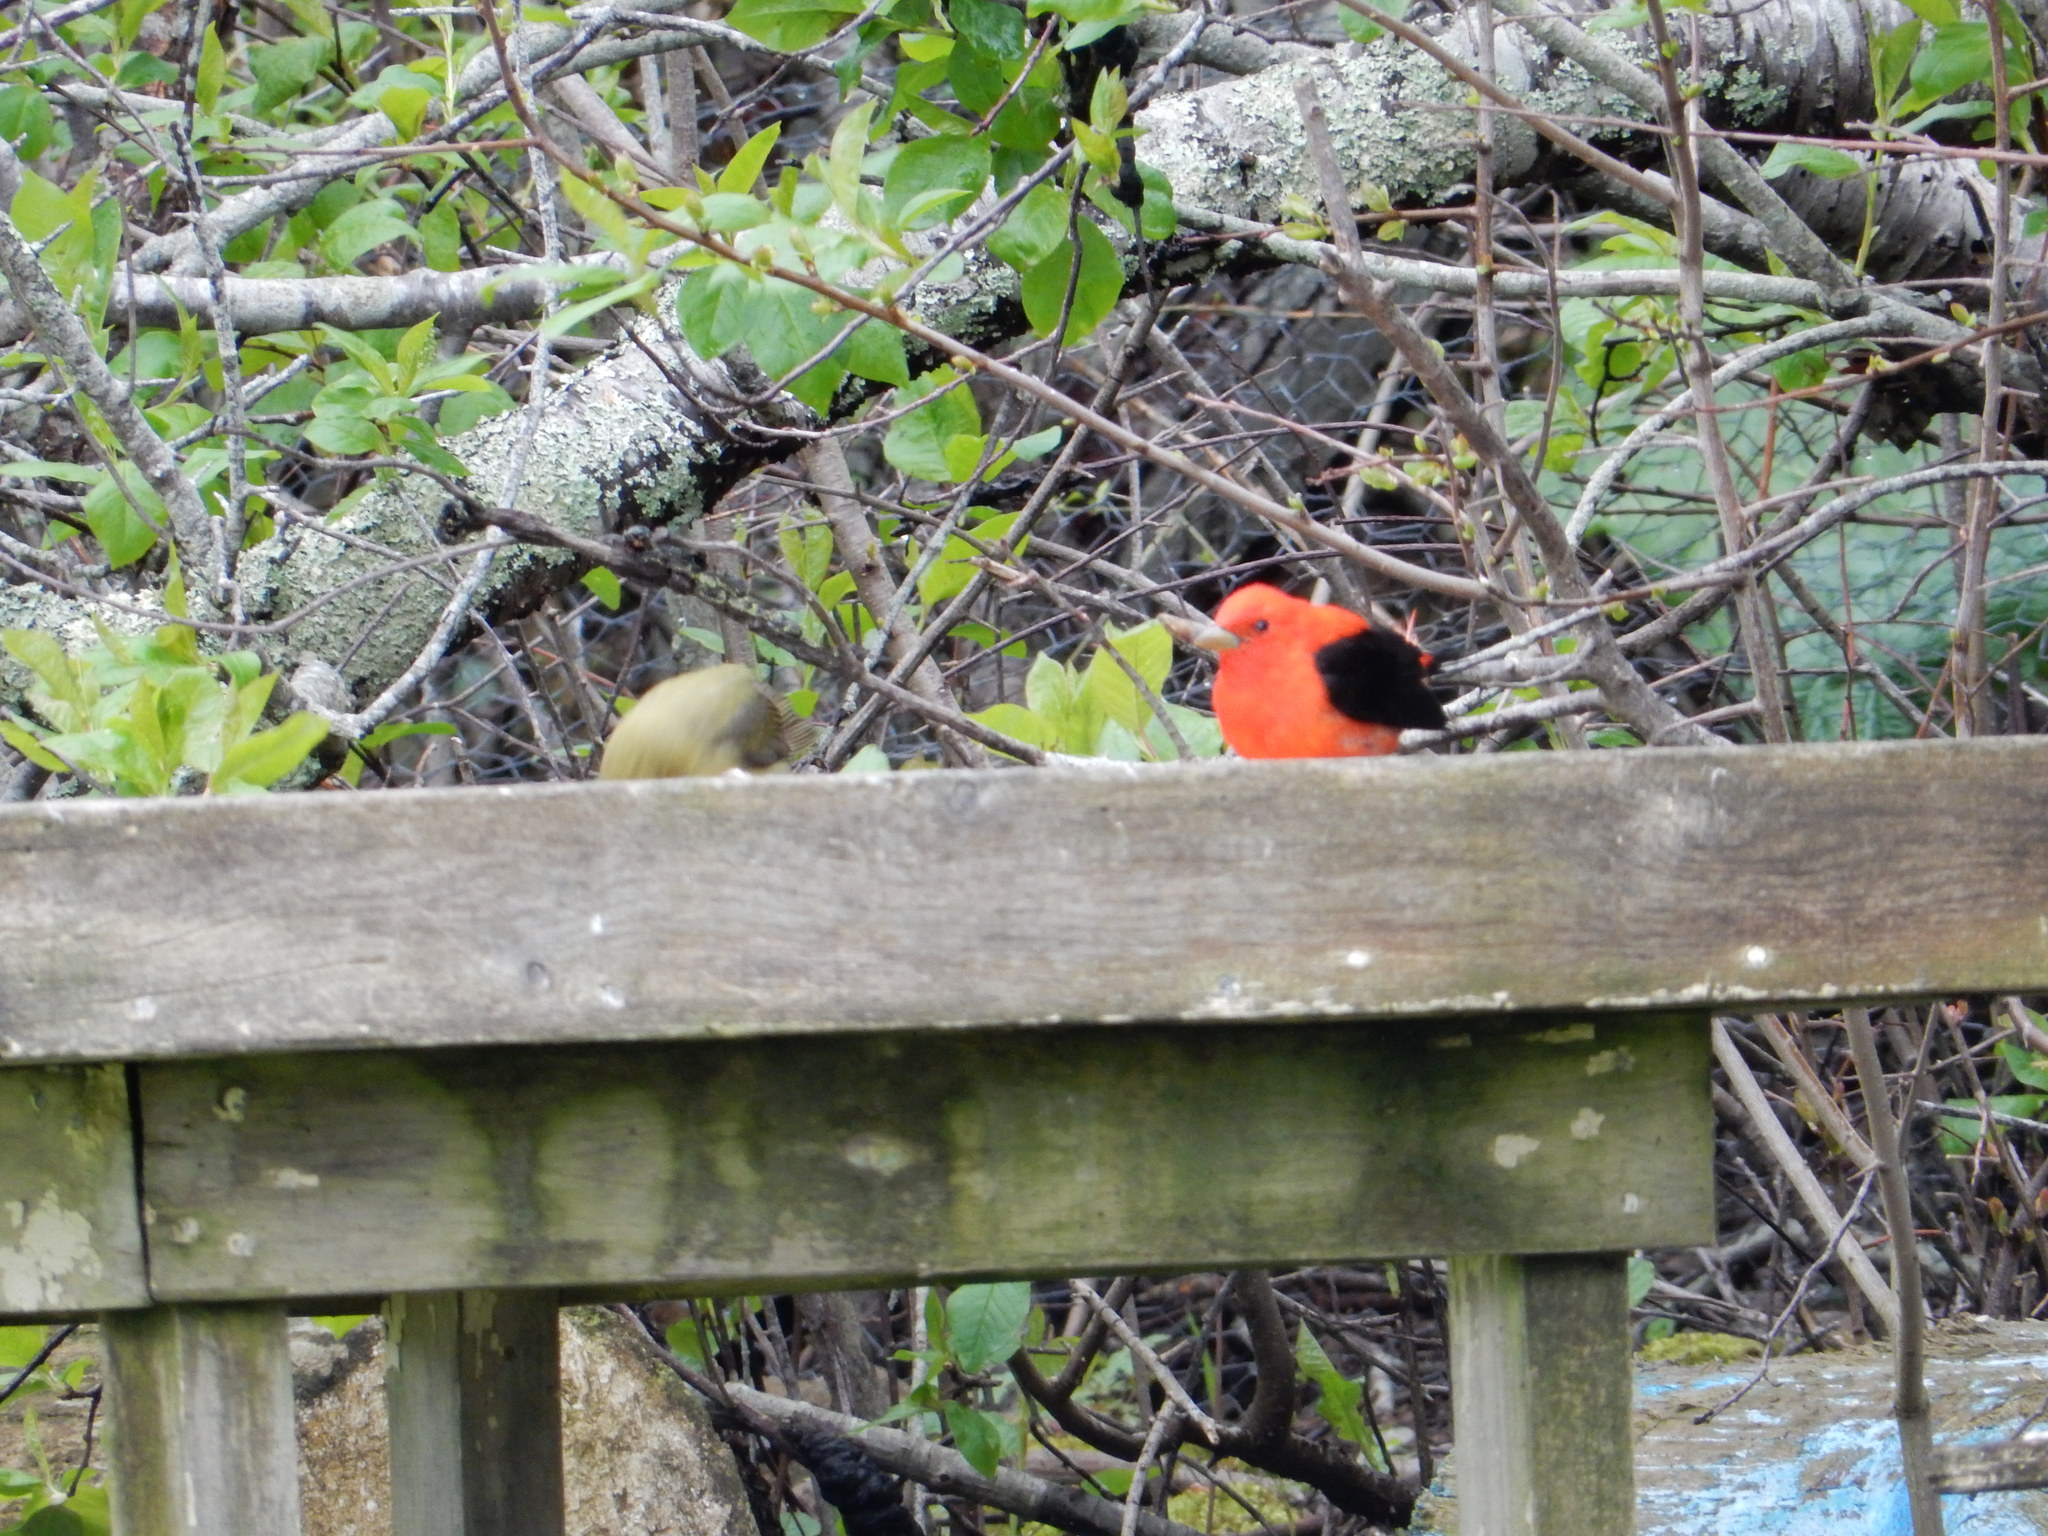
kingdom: Animalia
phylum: Chordata
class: Aves
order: Passeriformes
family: Cardinalidae
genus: Piranga
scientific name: Piranga olivacea
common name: Scarlet tanager
